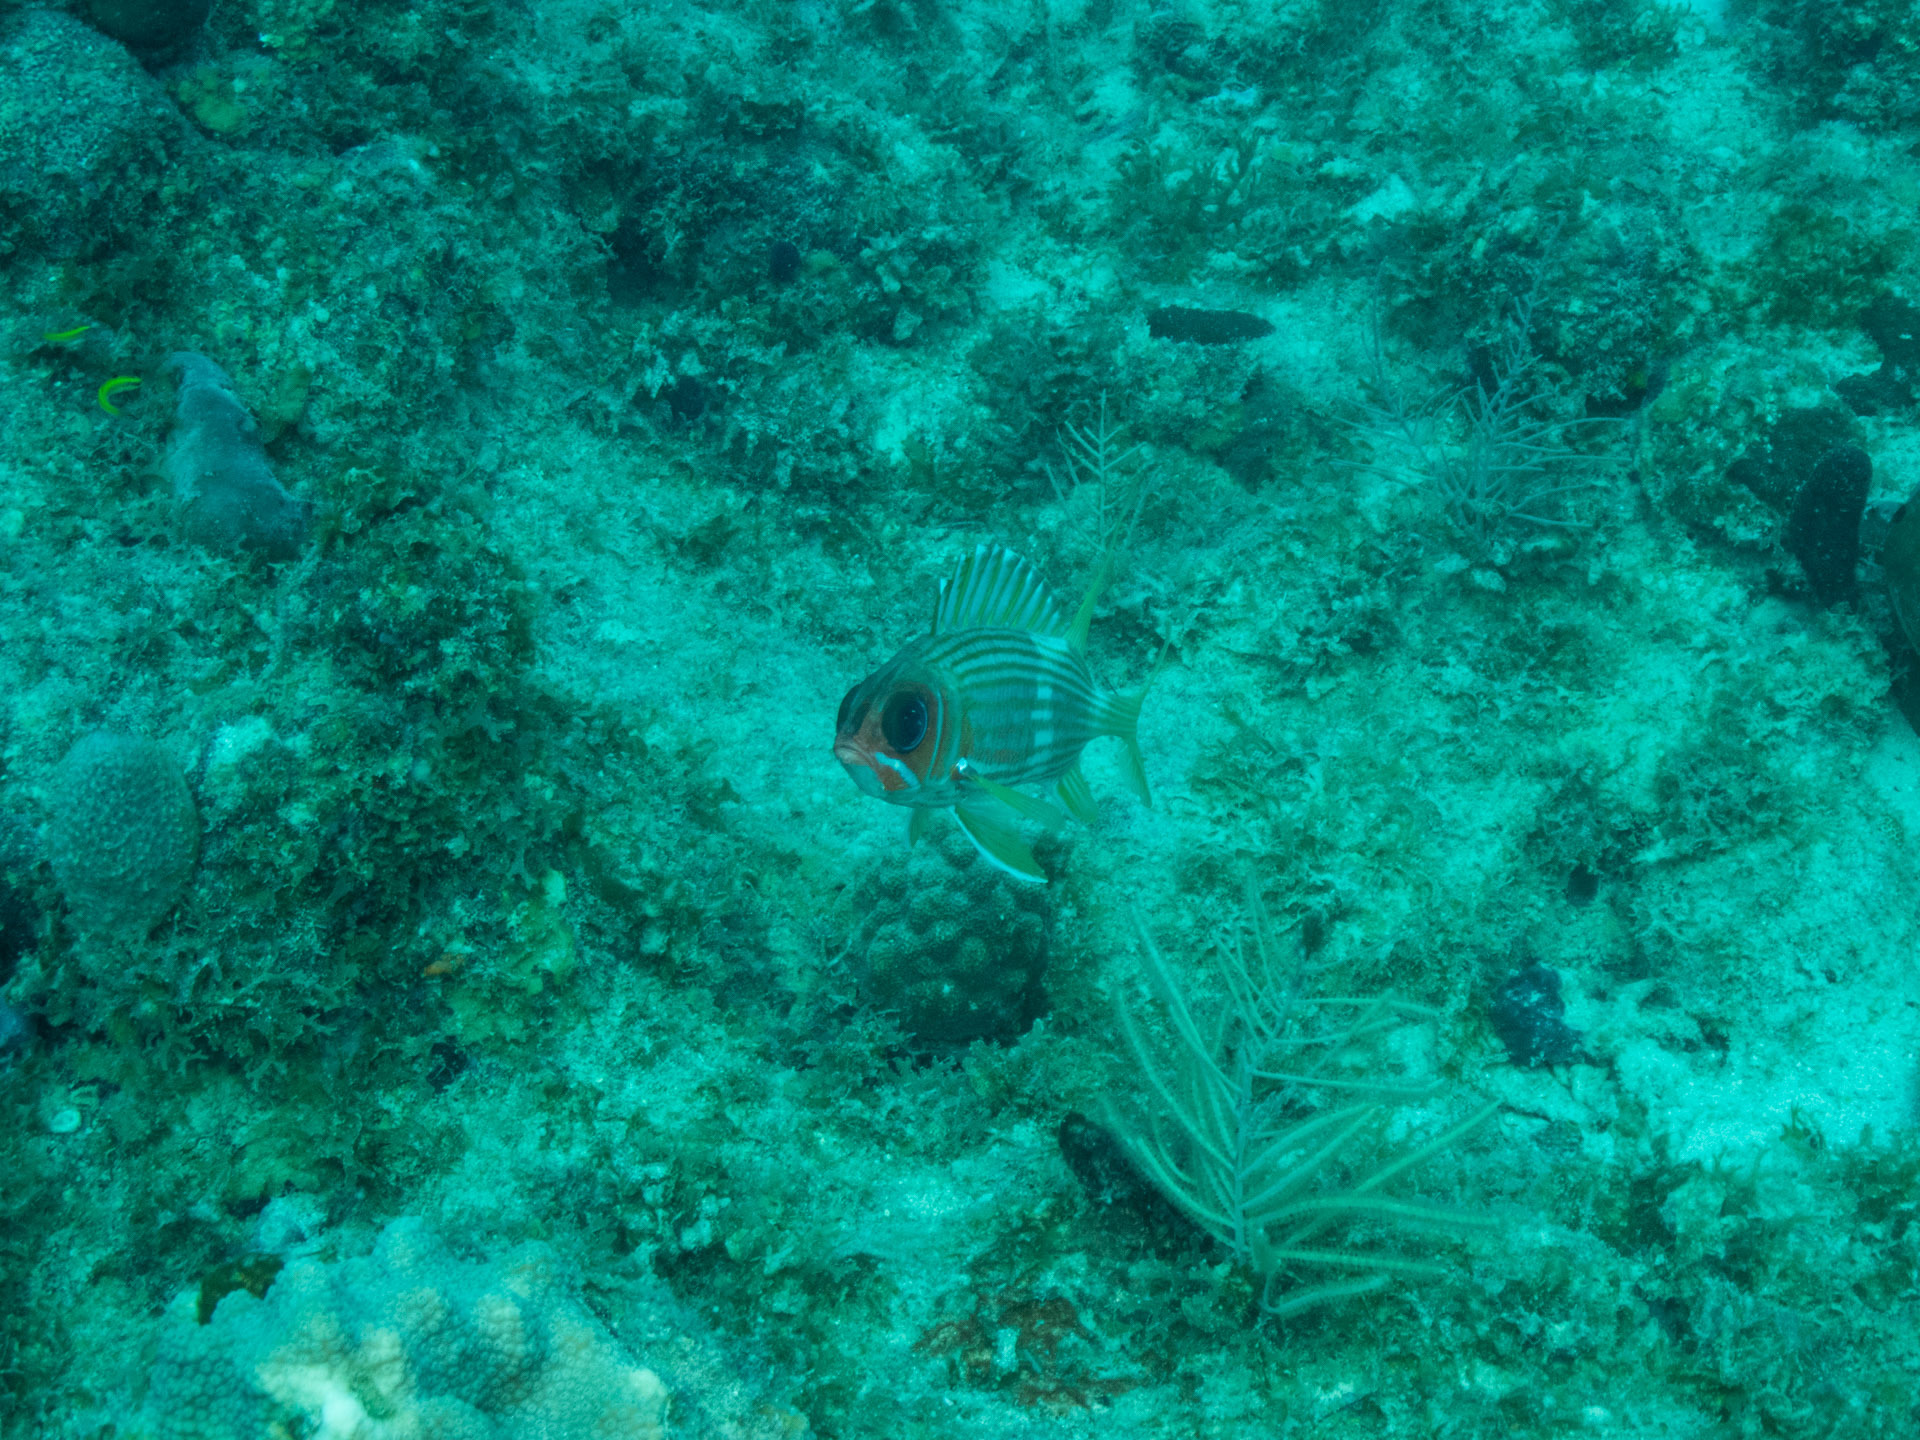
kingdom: Animalia
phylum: Chordata
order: Beryciformes
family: Holocentridae
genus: Holocentrus
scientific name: Holocentrus rufus
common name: Longspine squirrelfish
